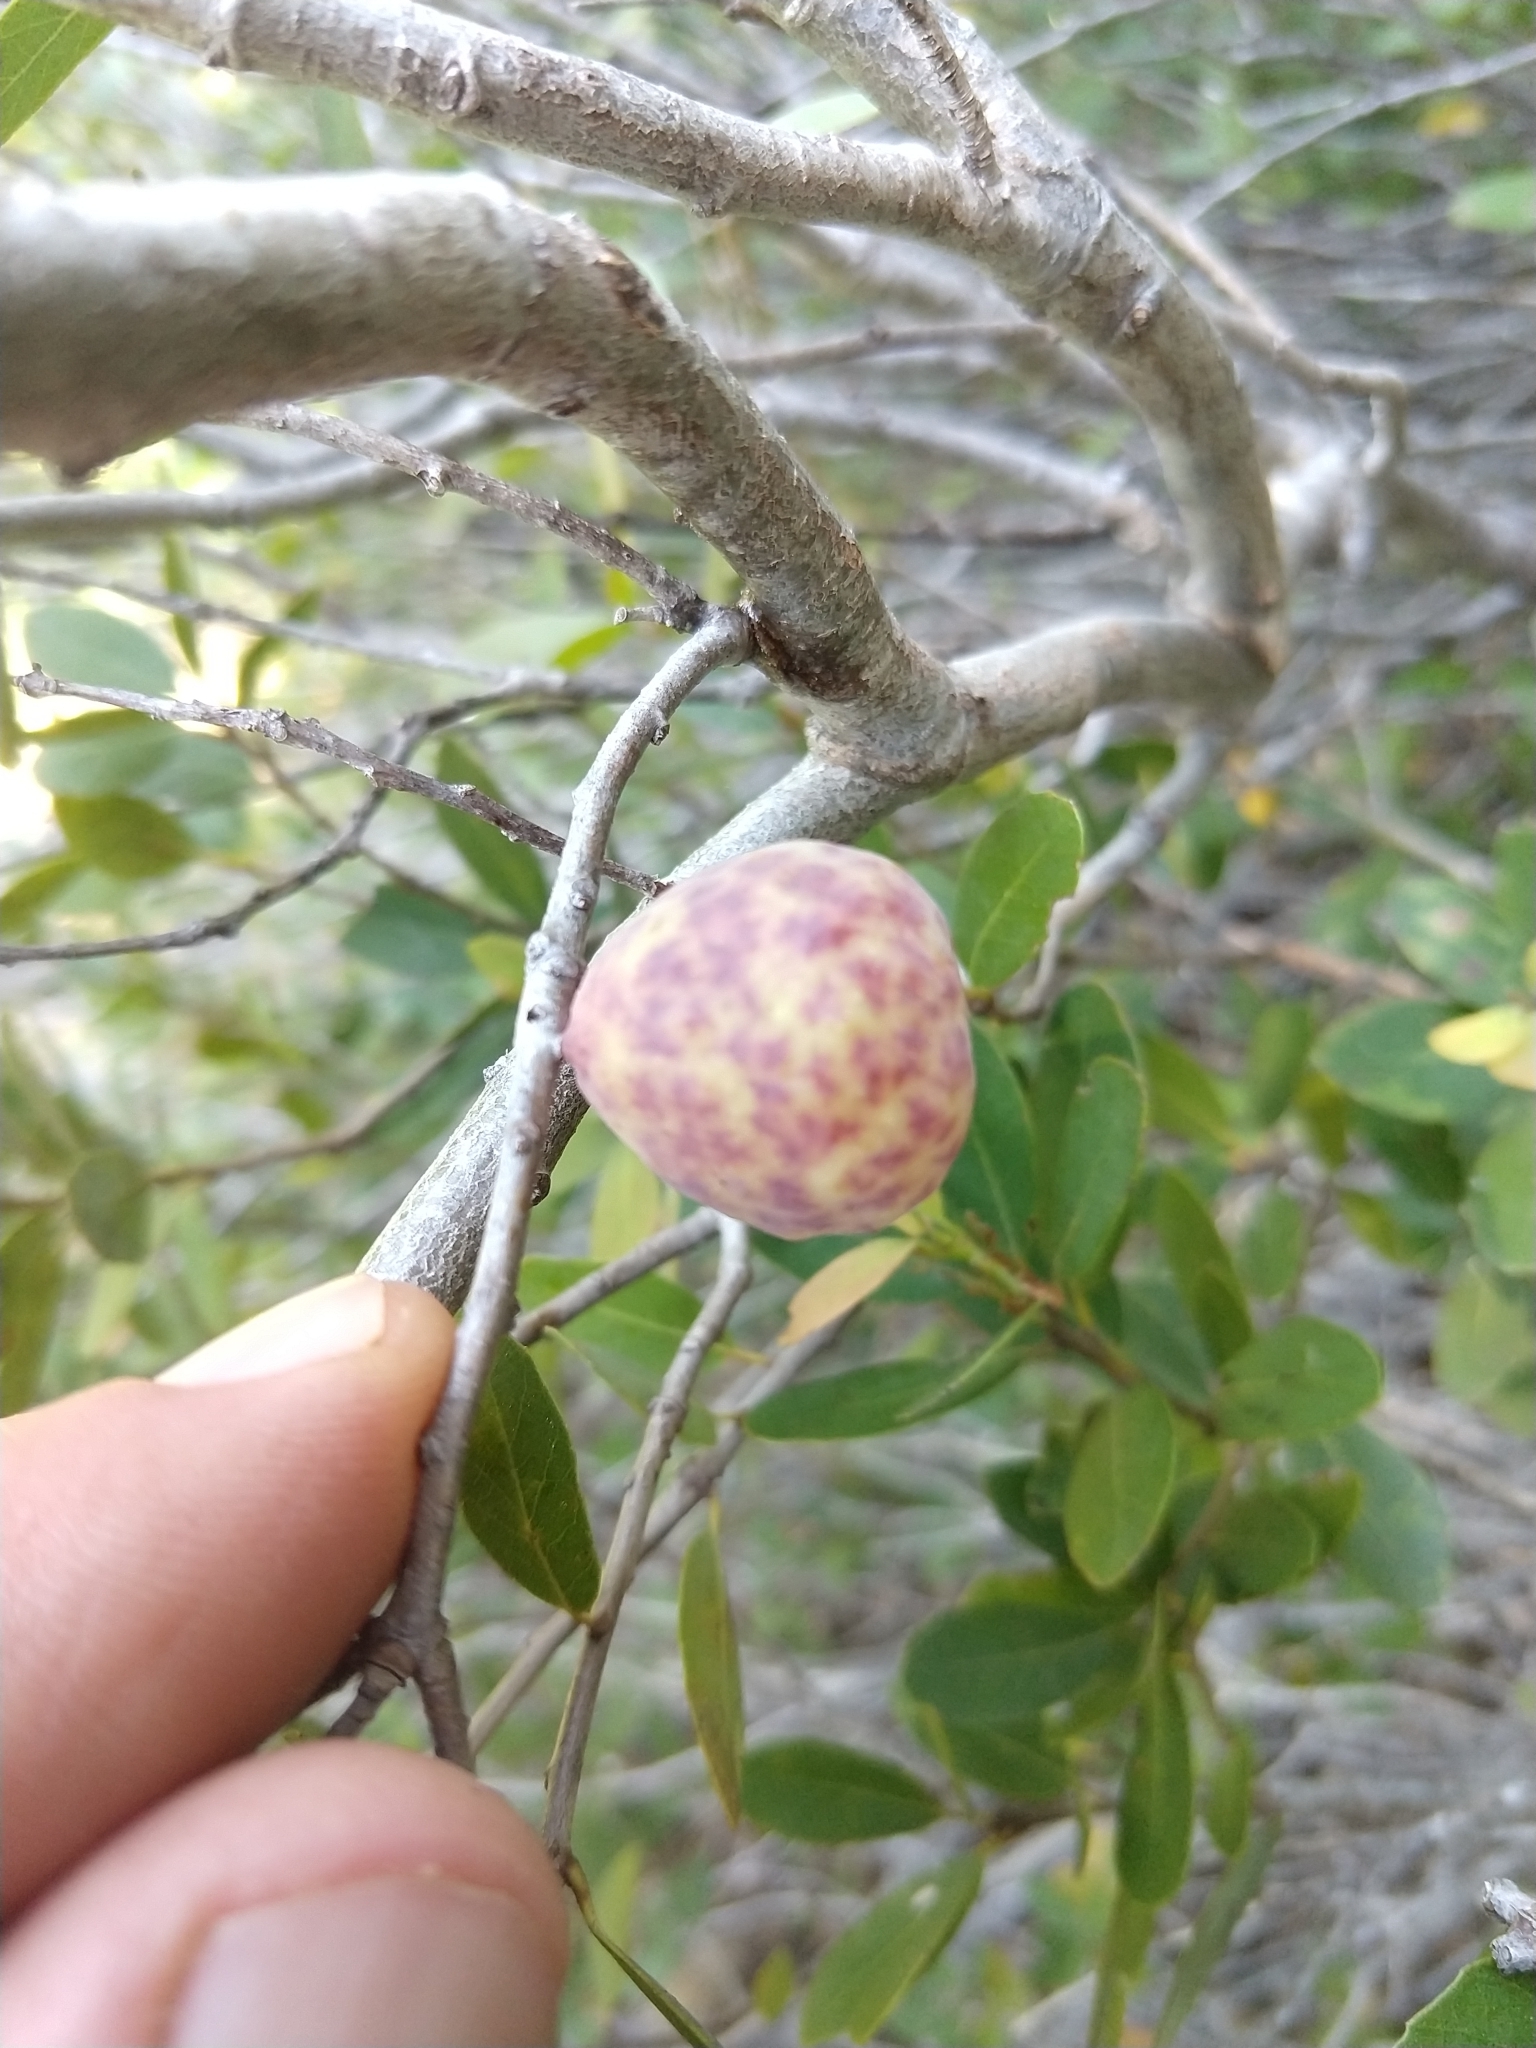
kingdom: Animalia
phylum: Arthropoda
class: Insecta
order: Hymenoptera
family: Cynipidae
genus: Andricus
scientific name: Andricus
